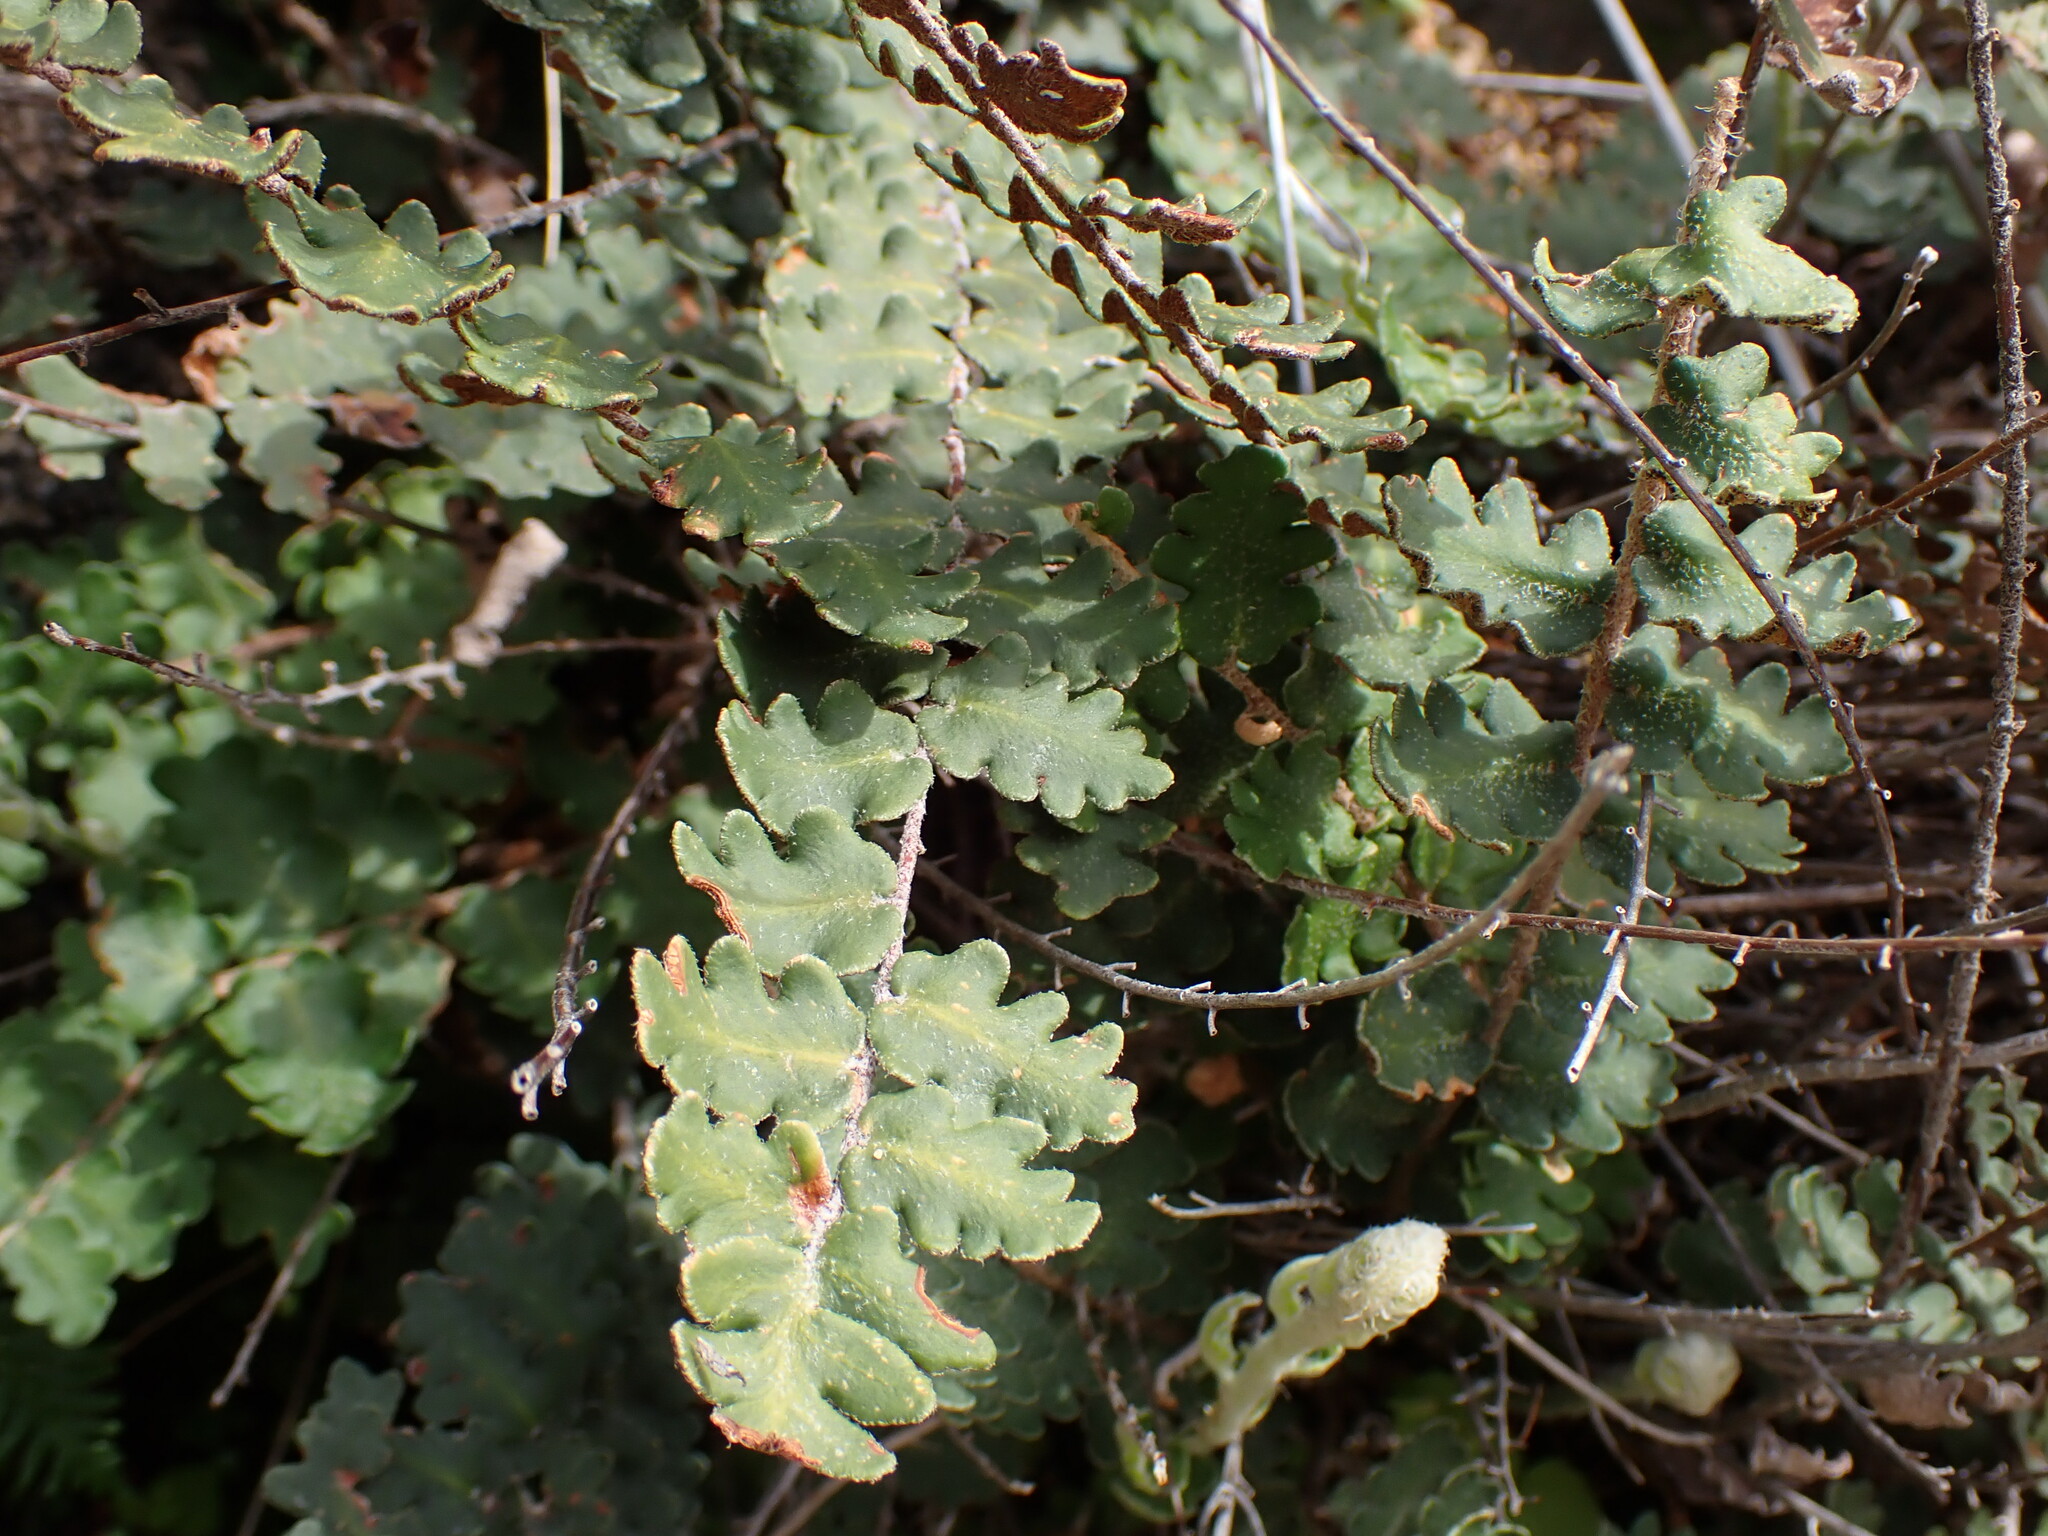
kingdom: Plantae
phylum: Tracheophyta
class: Polypodiopsida
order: Polypodiales
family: Pteridaceae
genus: Astrolepis
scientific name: Astrolepis sinuata
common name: Wavy scaly cloakfern
